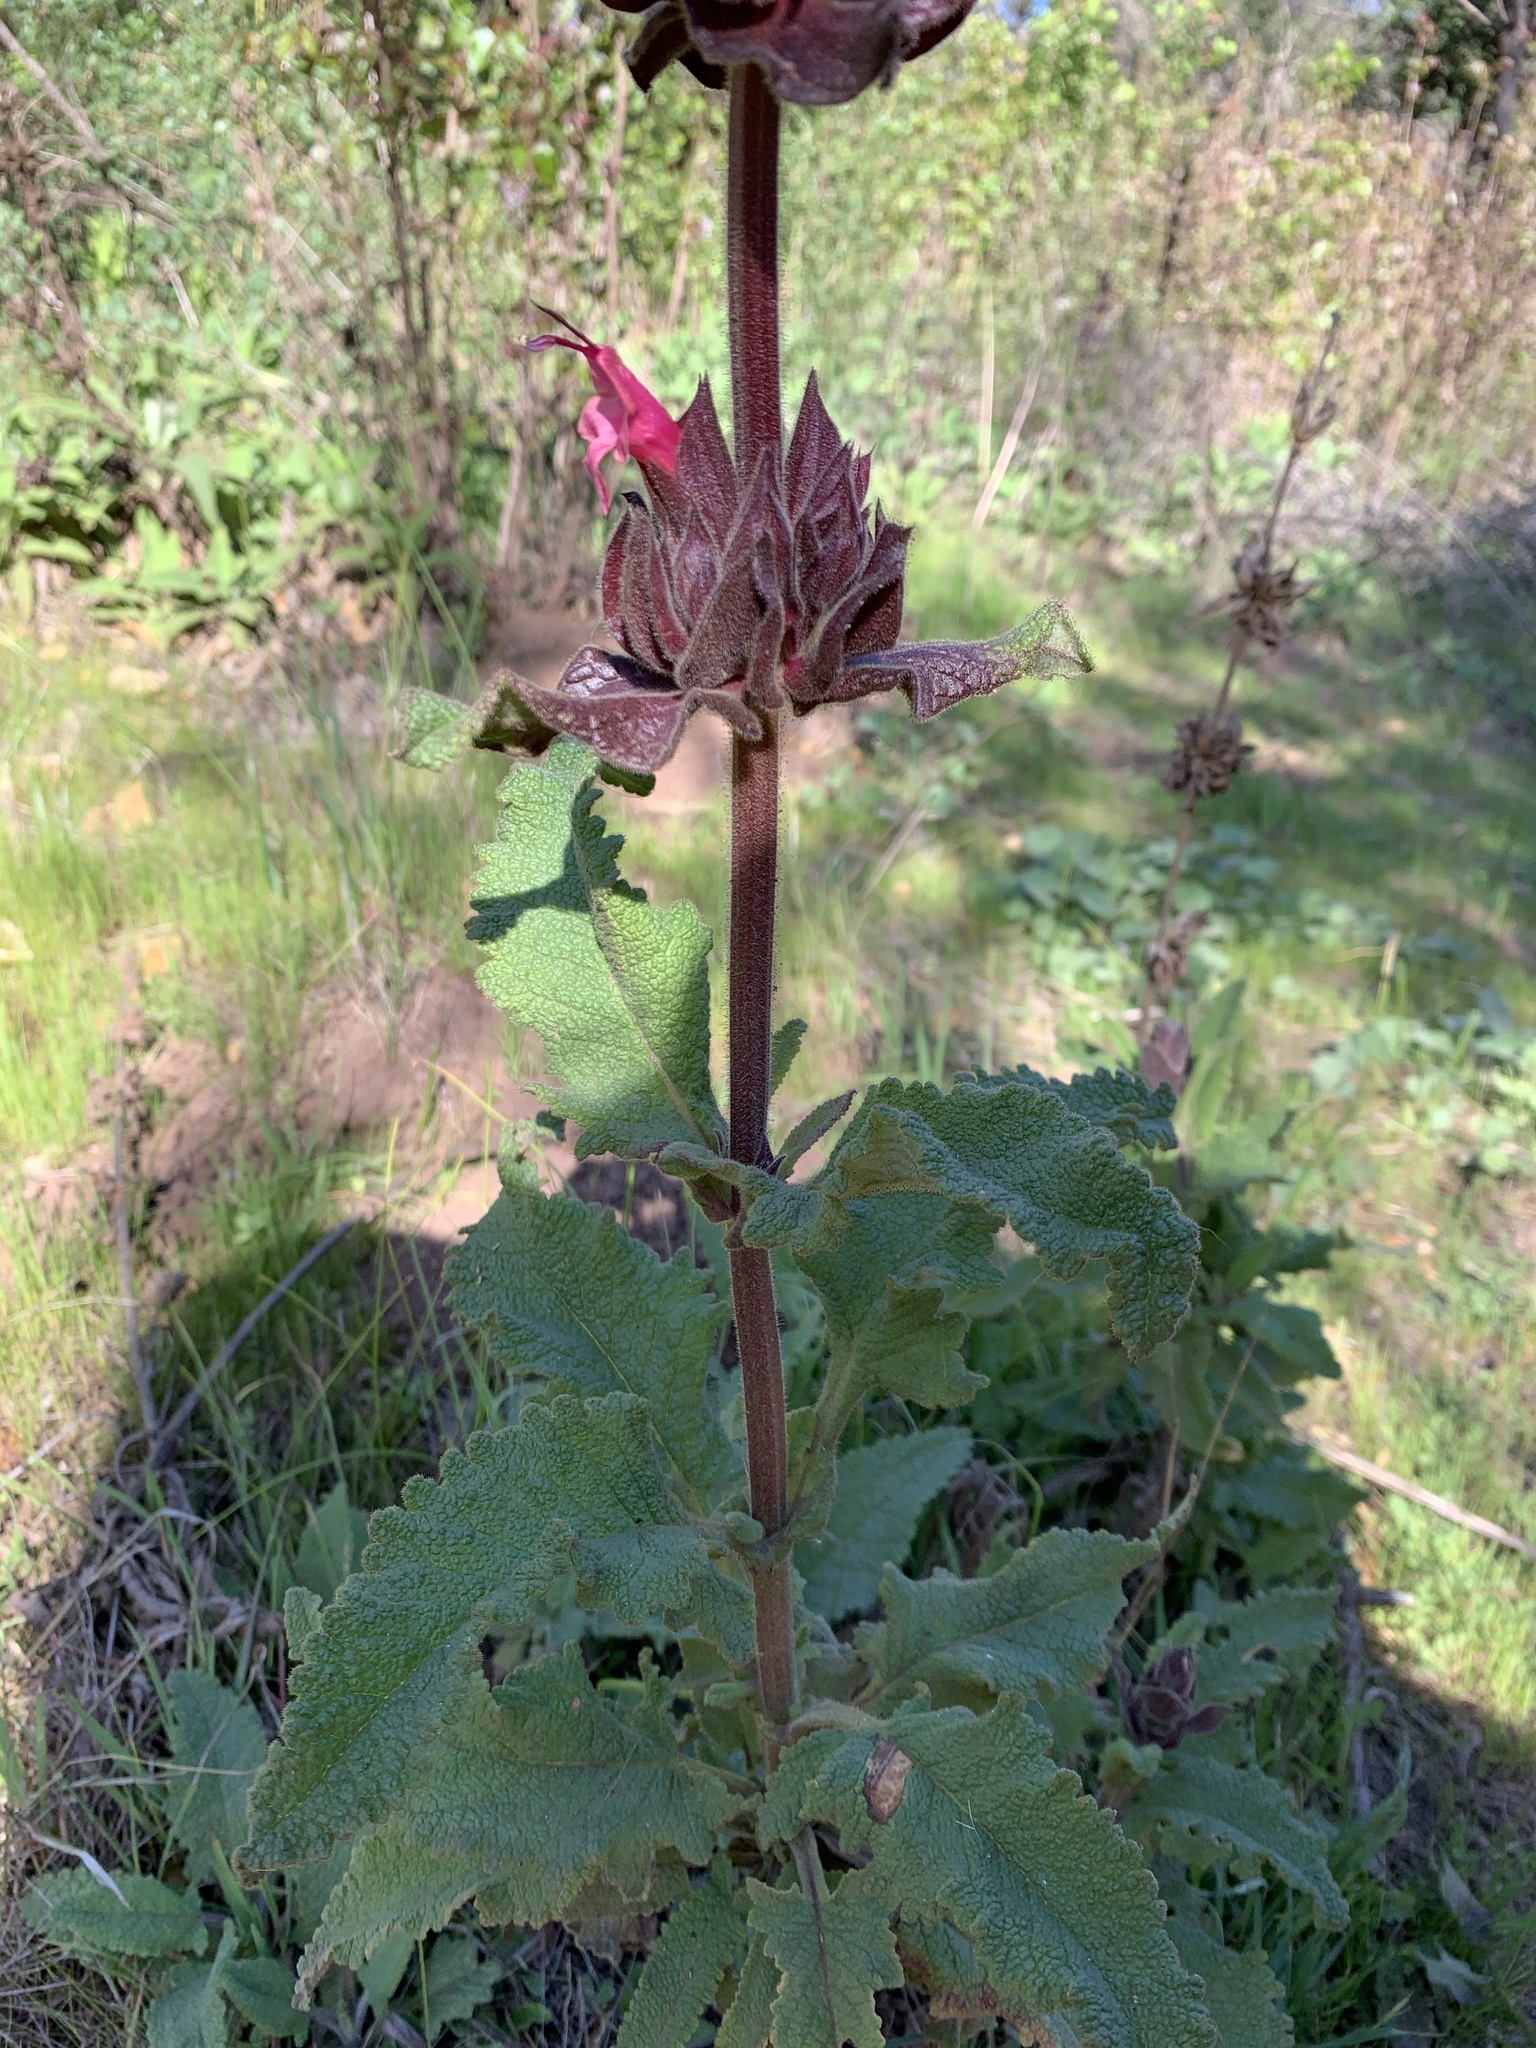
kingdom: Plantae
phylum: Tracheophyta
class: Magnoliopsida
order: Lamiales
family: Lamiaceae
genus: Salvia
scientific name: Salvia spathacea
